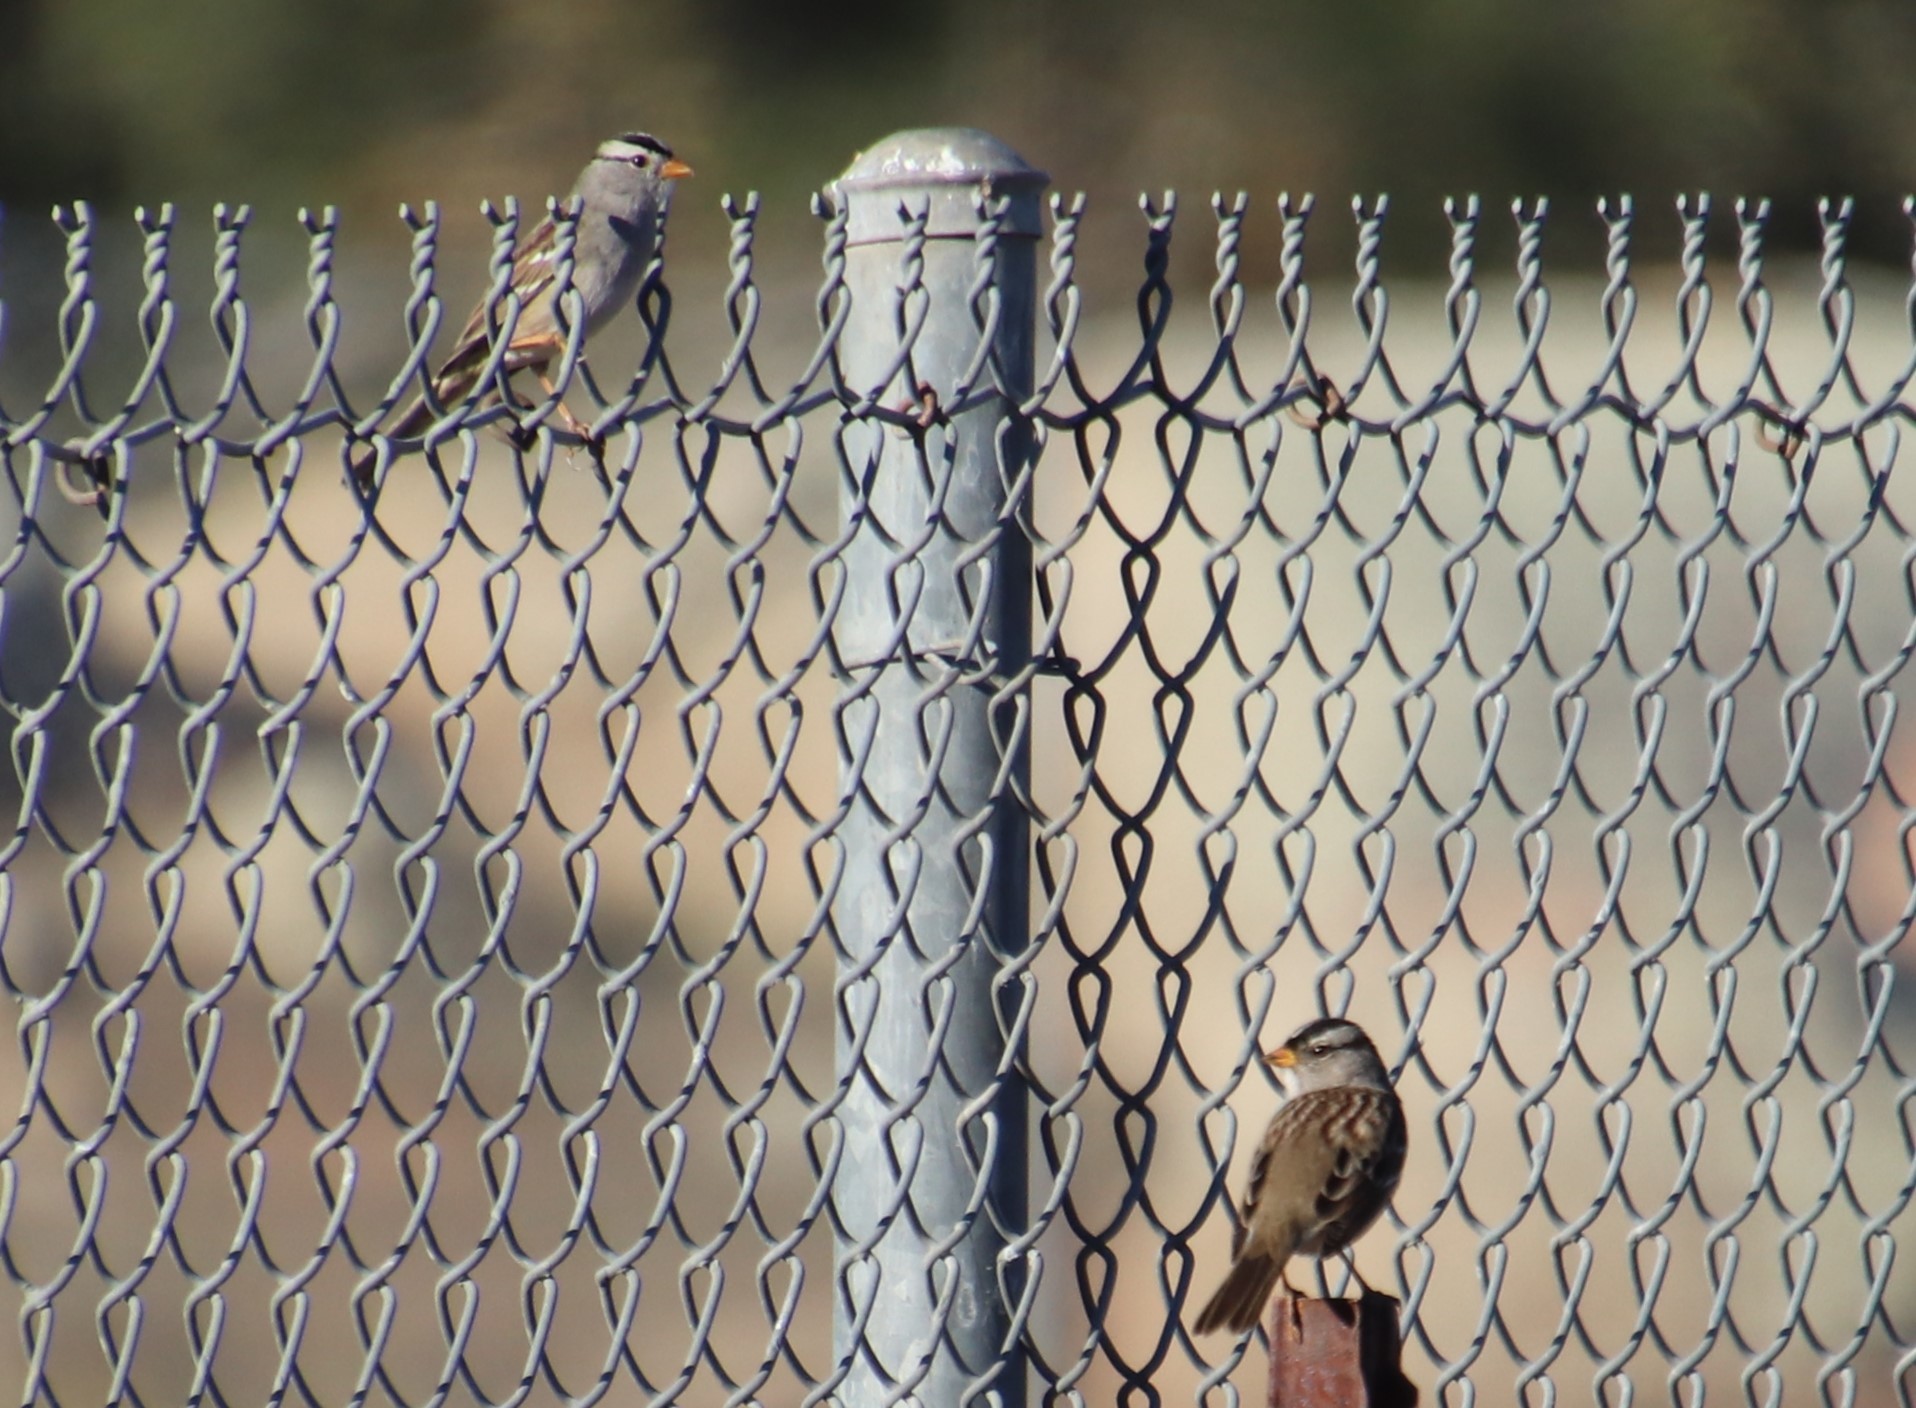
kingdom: Animalia
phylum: Chordata
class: Aves
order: Passeriformes
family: Passerellidae
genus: Zonotrichia
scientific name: Zonotrichia leucophrys
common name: White-crowned sparrow
